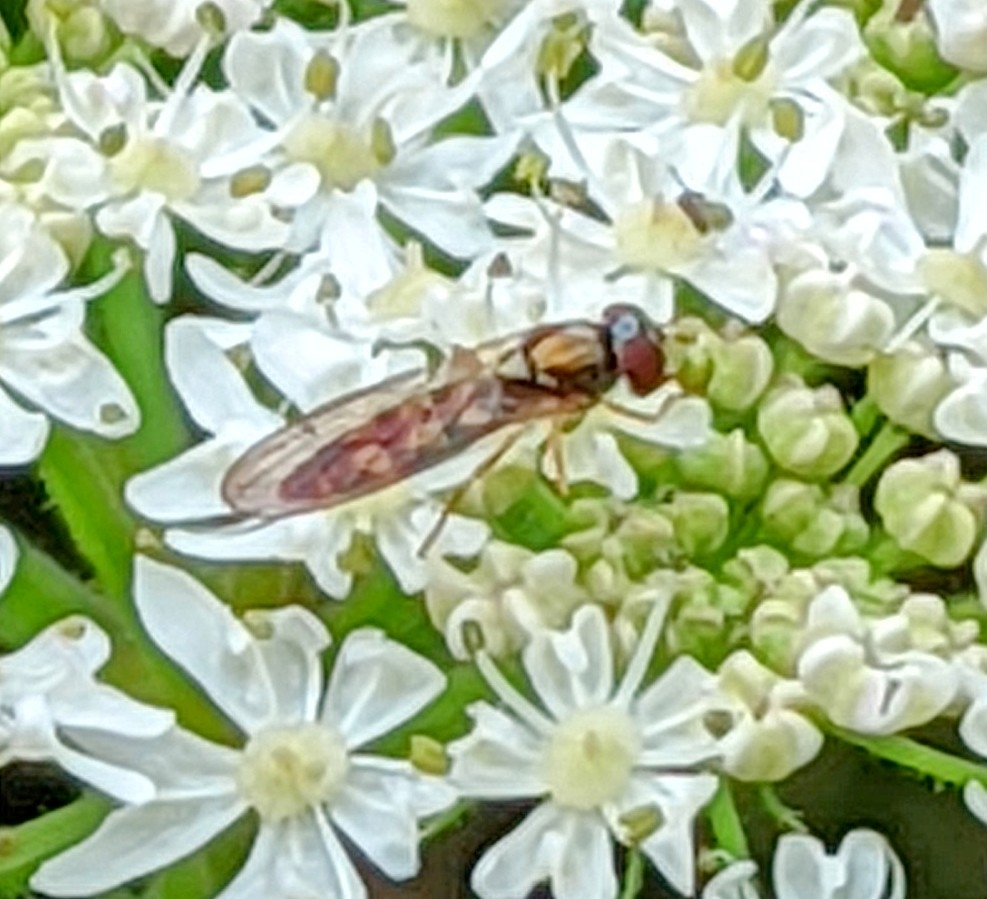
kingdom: Animalia
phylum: Arthropoda
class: Insecta
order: Diptera
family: Syrphidae
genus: Melanostoma
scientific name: Melanostoma
